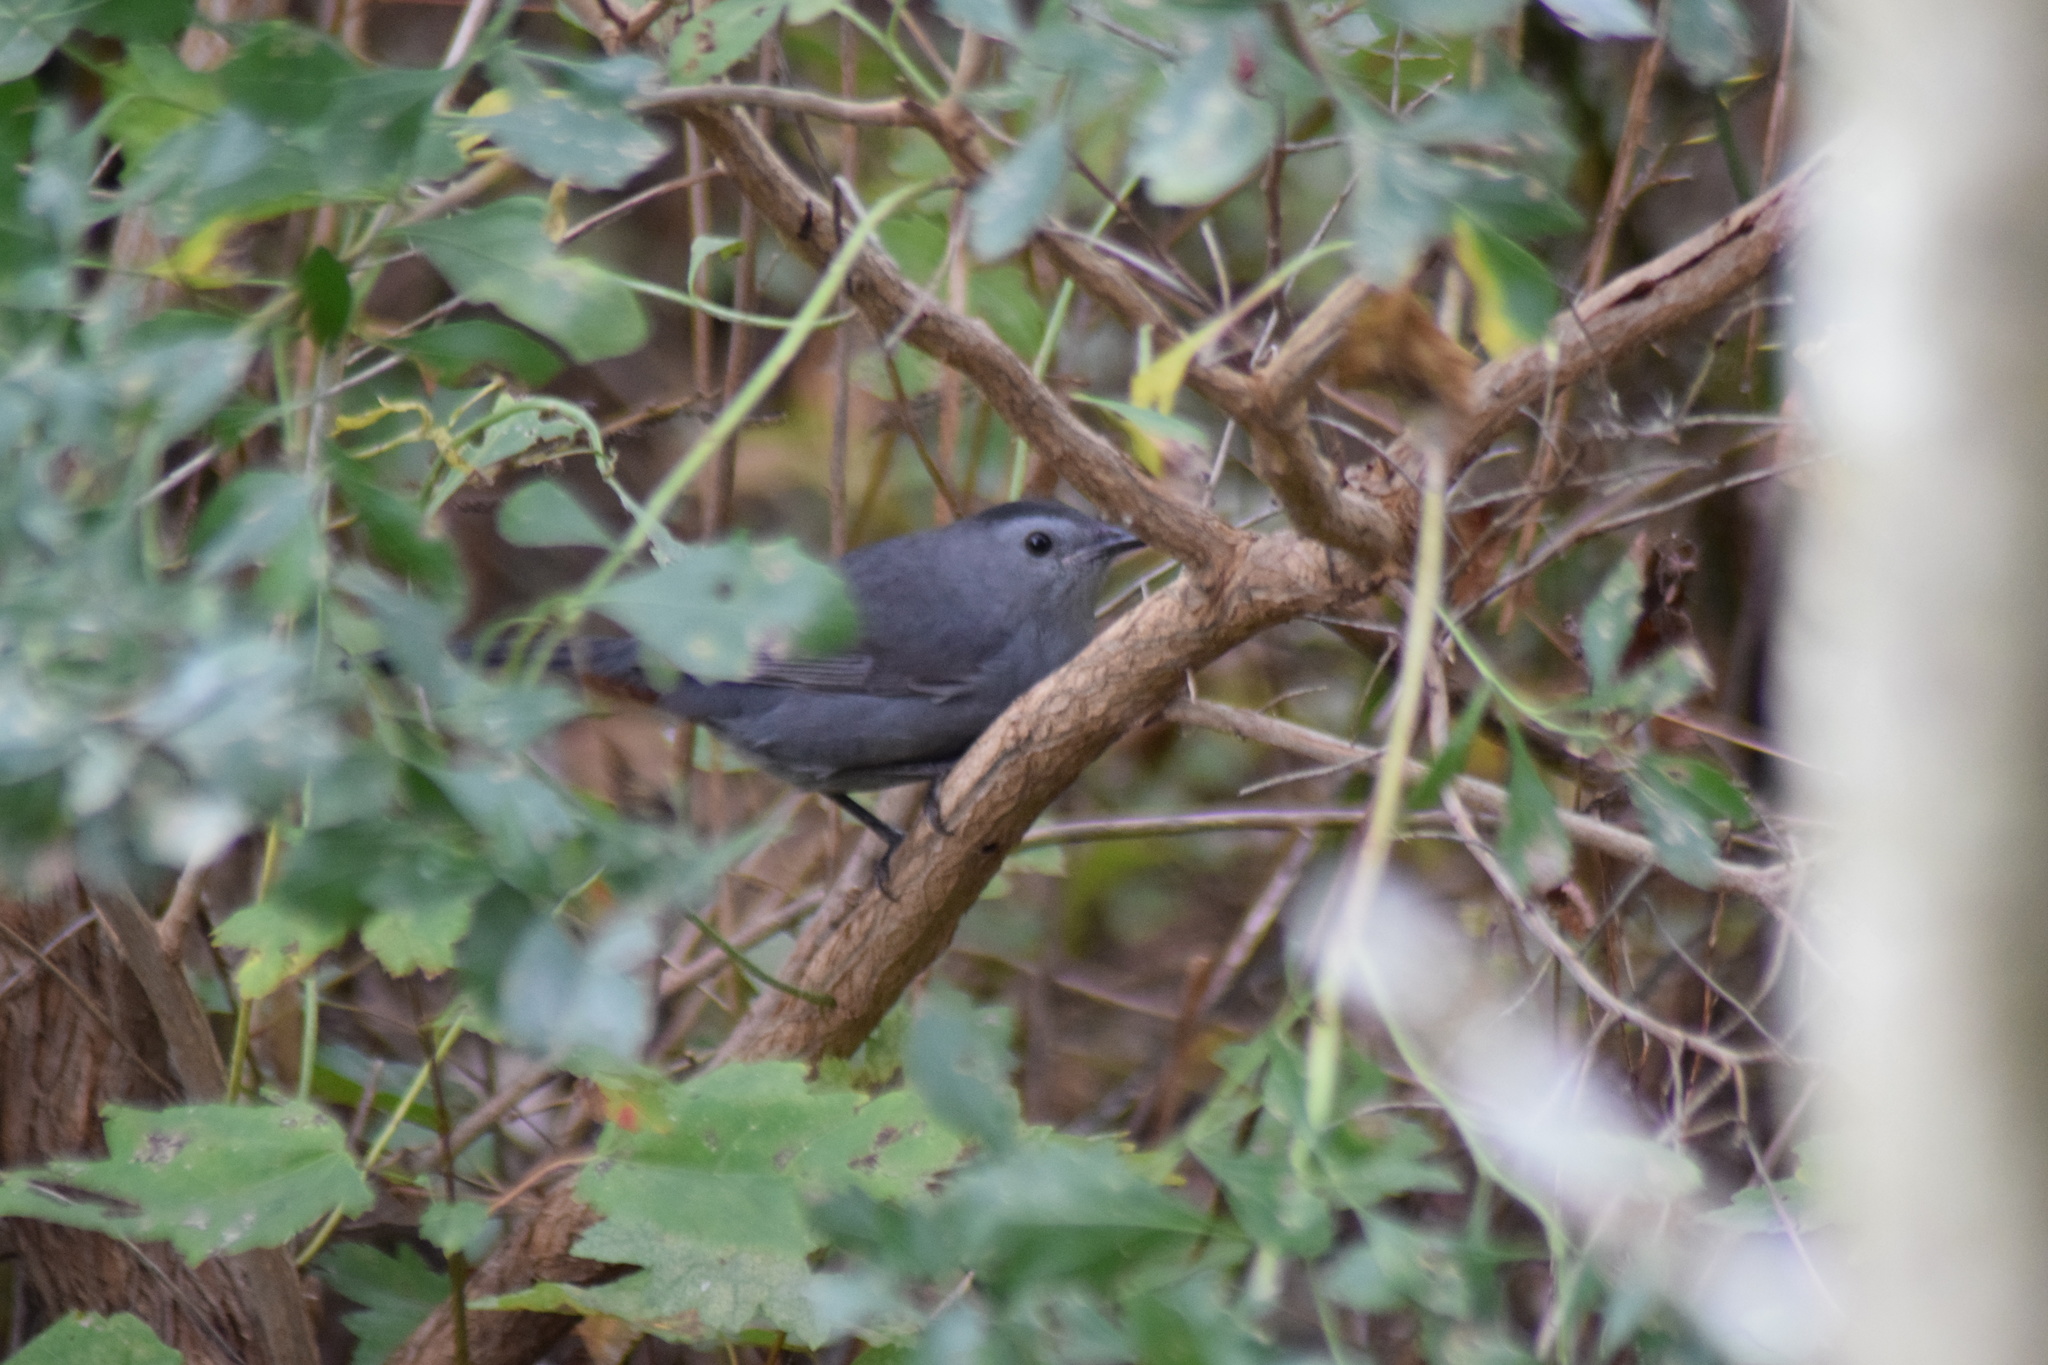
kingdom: Animalia
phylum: Chordata
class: Aves
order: Passeriformes
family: Mimidae
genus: Dumetella
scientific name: Dumetella carolinensis
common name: Gray catbird
